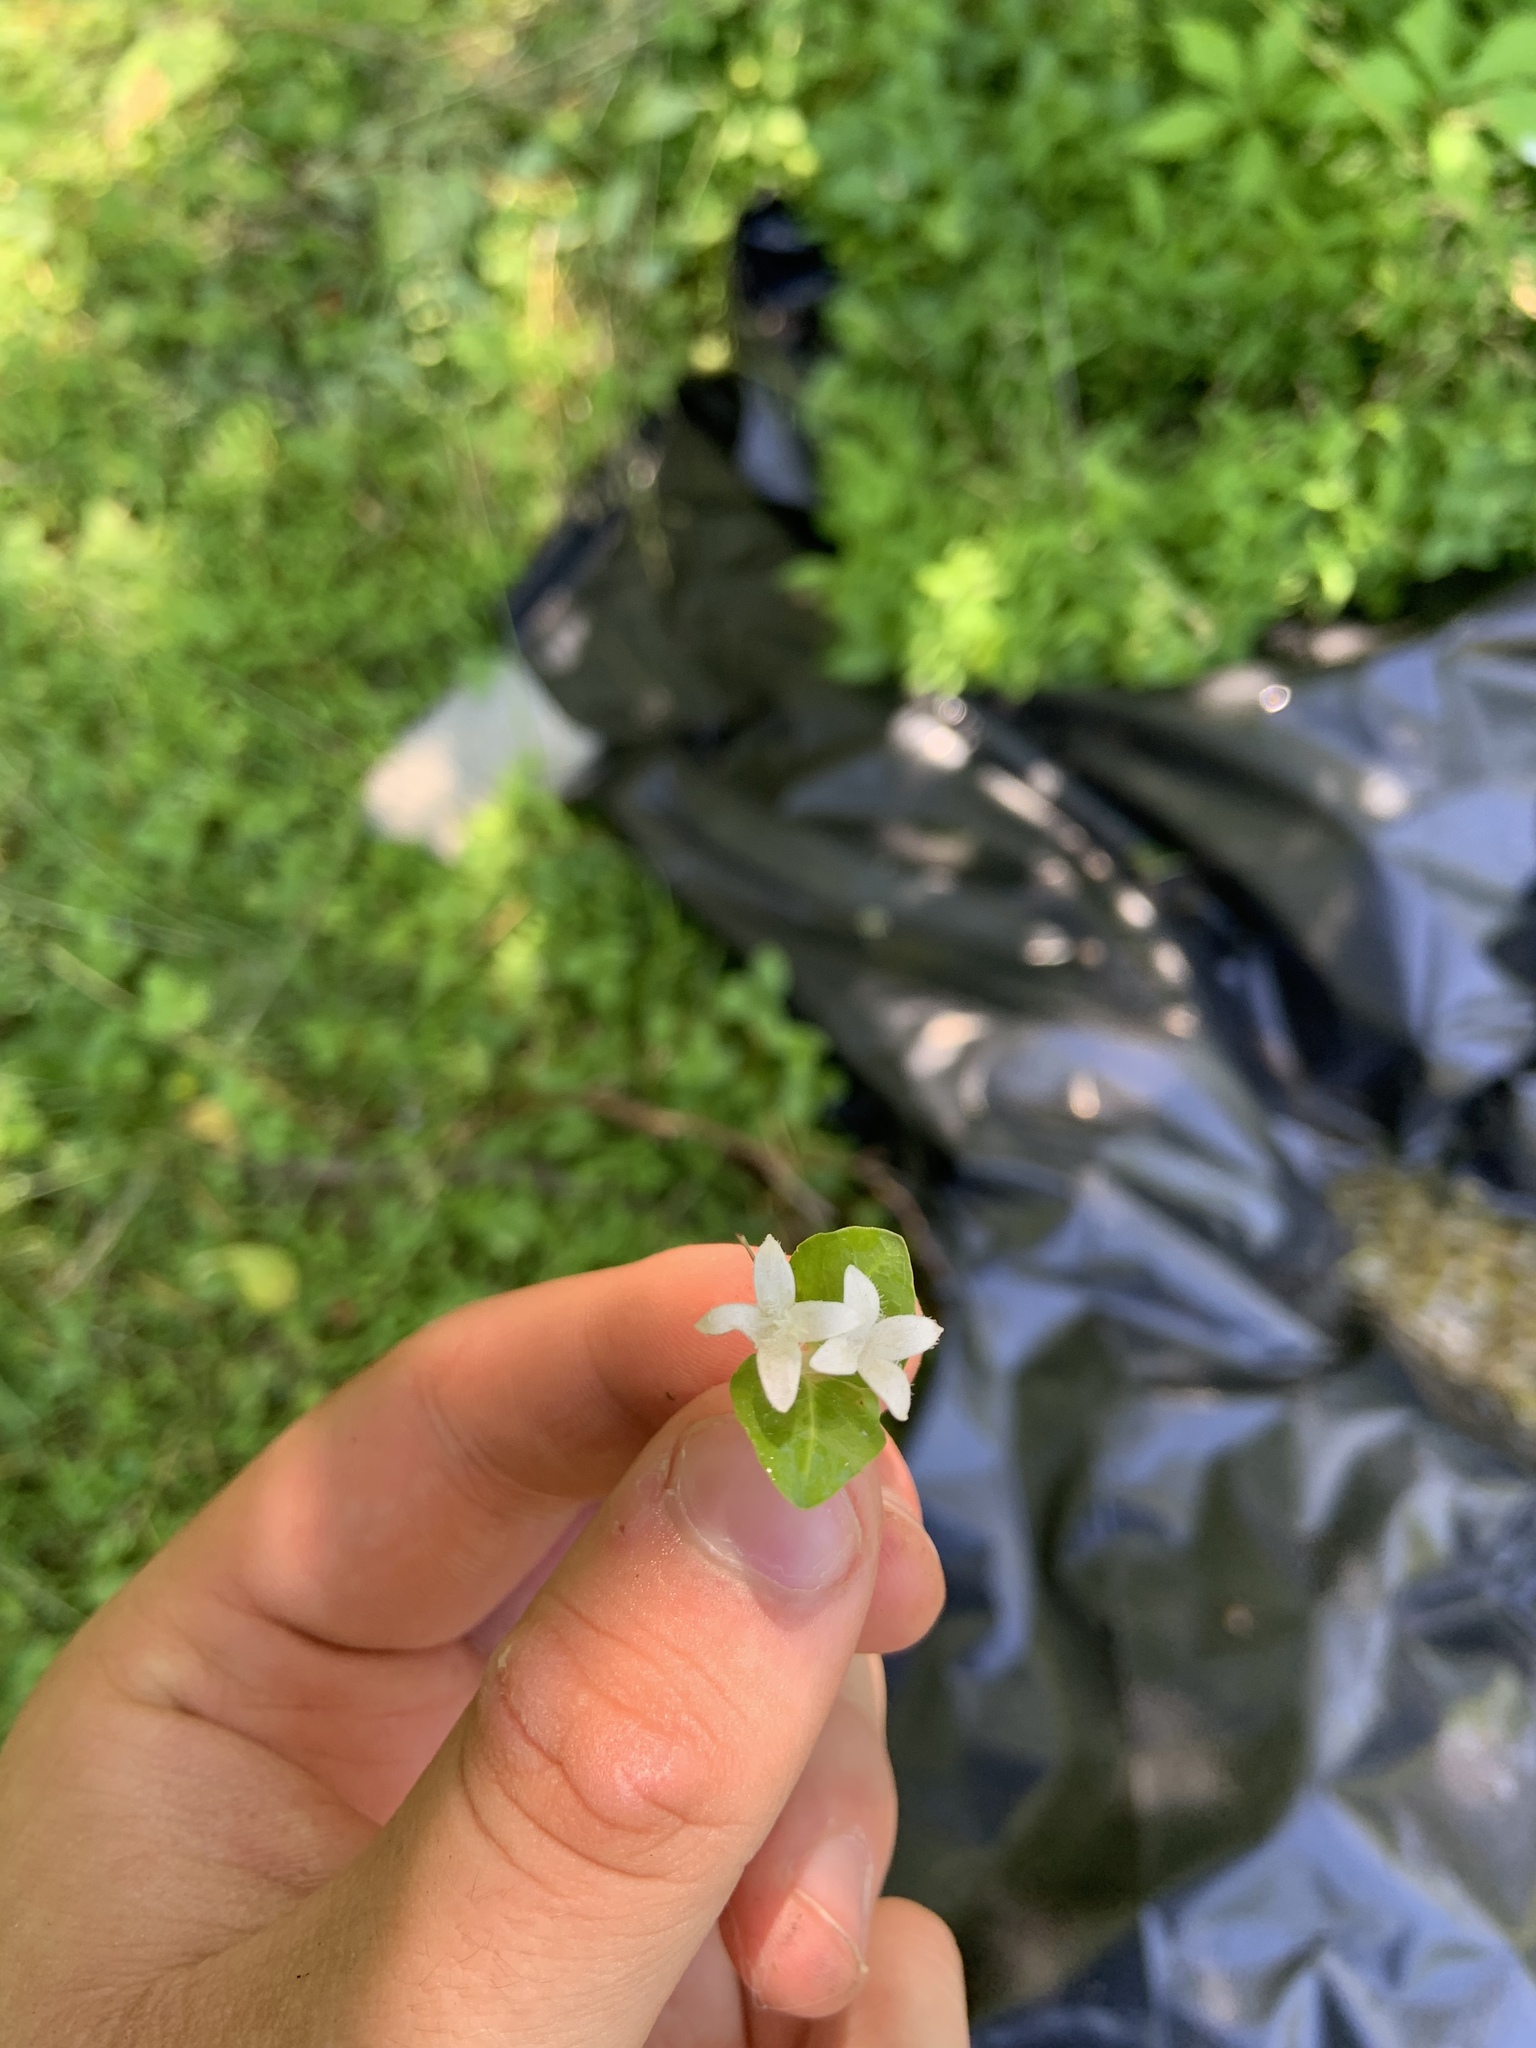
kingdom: Plantae
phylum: Tracheophyta
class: Magnoliopsida
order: Gentianales
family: Rubiaceae
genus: Mitchella
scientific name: Mitchella repens
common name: Partridge-berry
